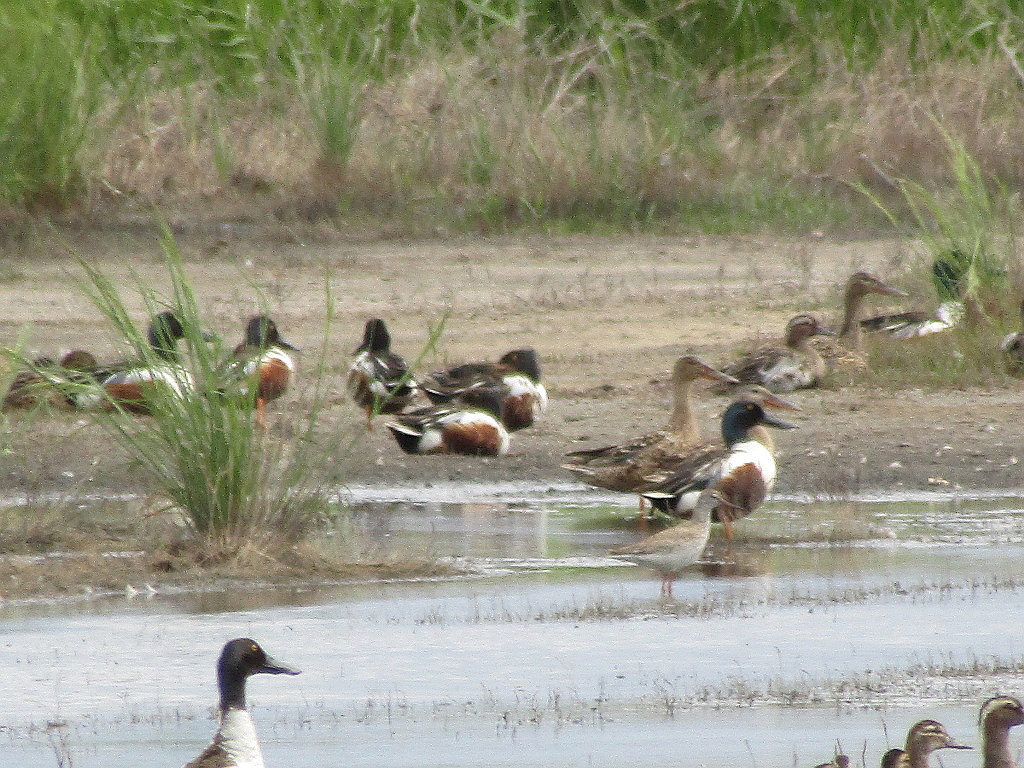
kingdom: Animalia
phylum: Chordata
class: Aves
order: Anseriformes
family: Anatidae
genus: Spatula
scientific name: Spatula clypeata
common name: Northern shoveler
